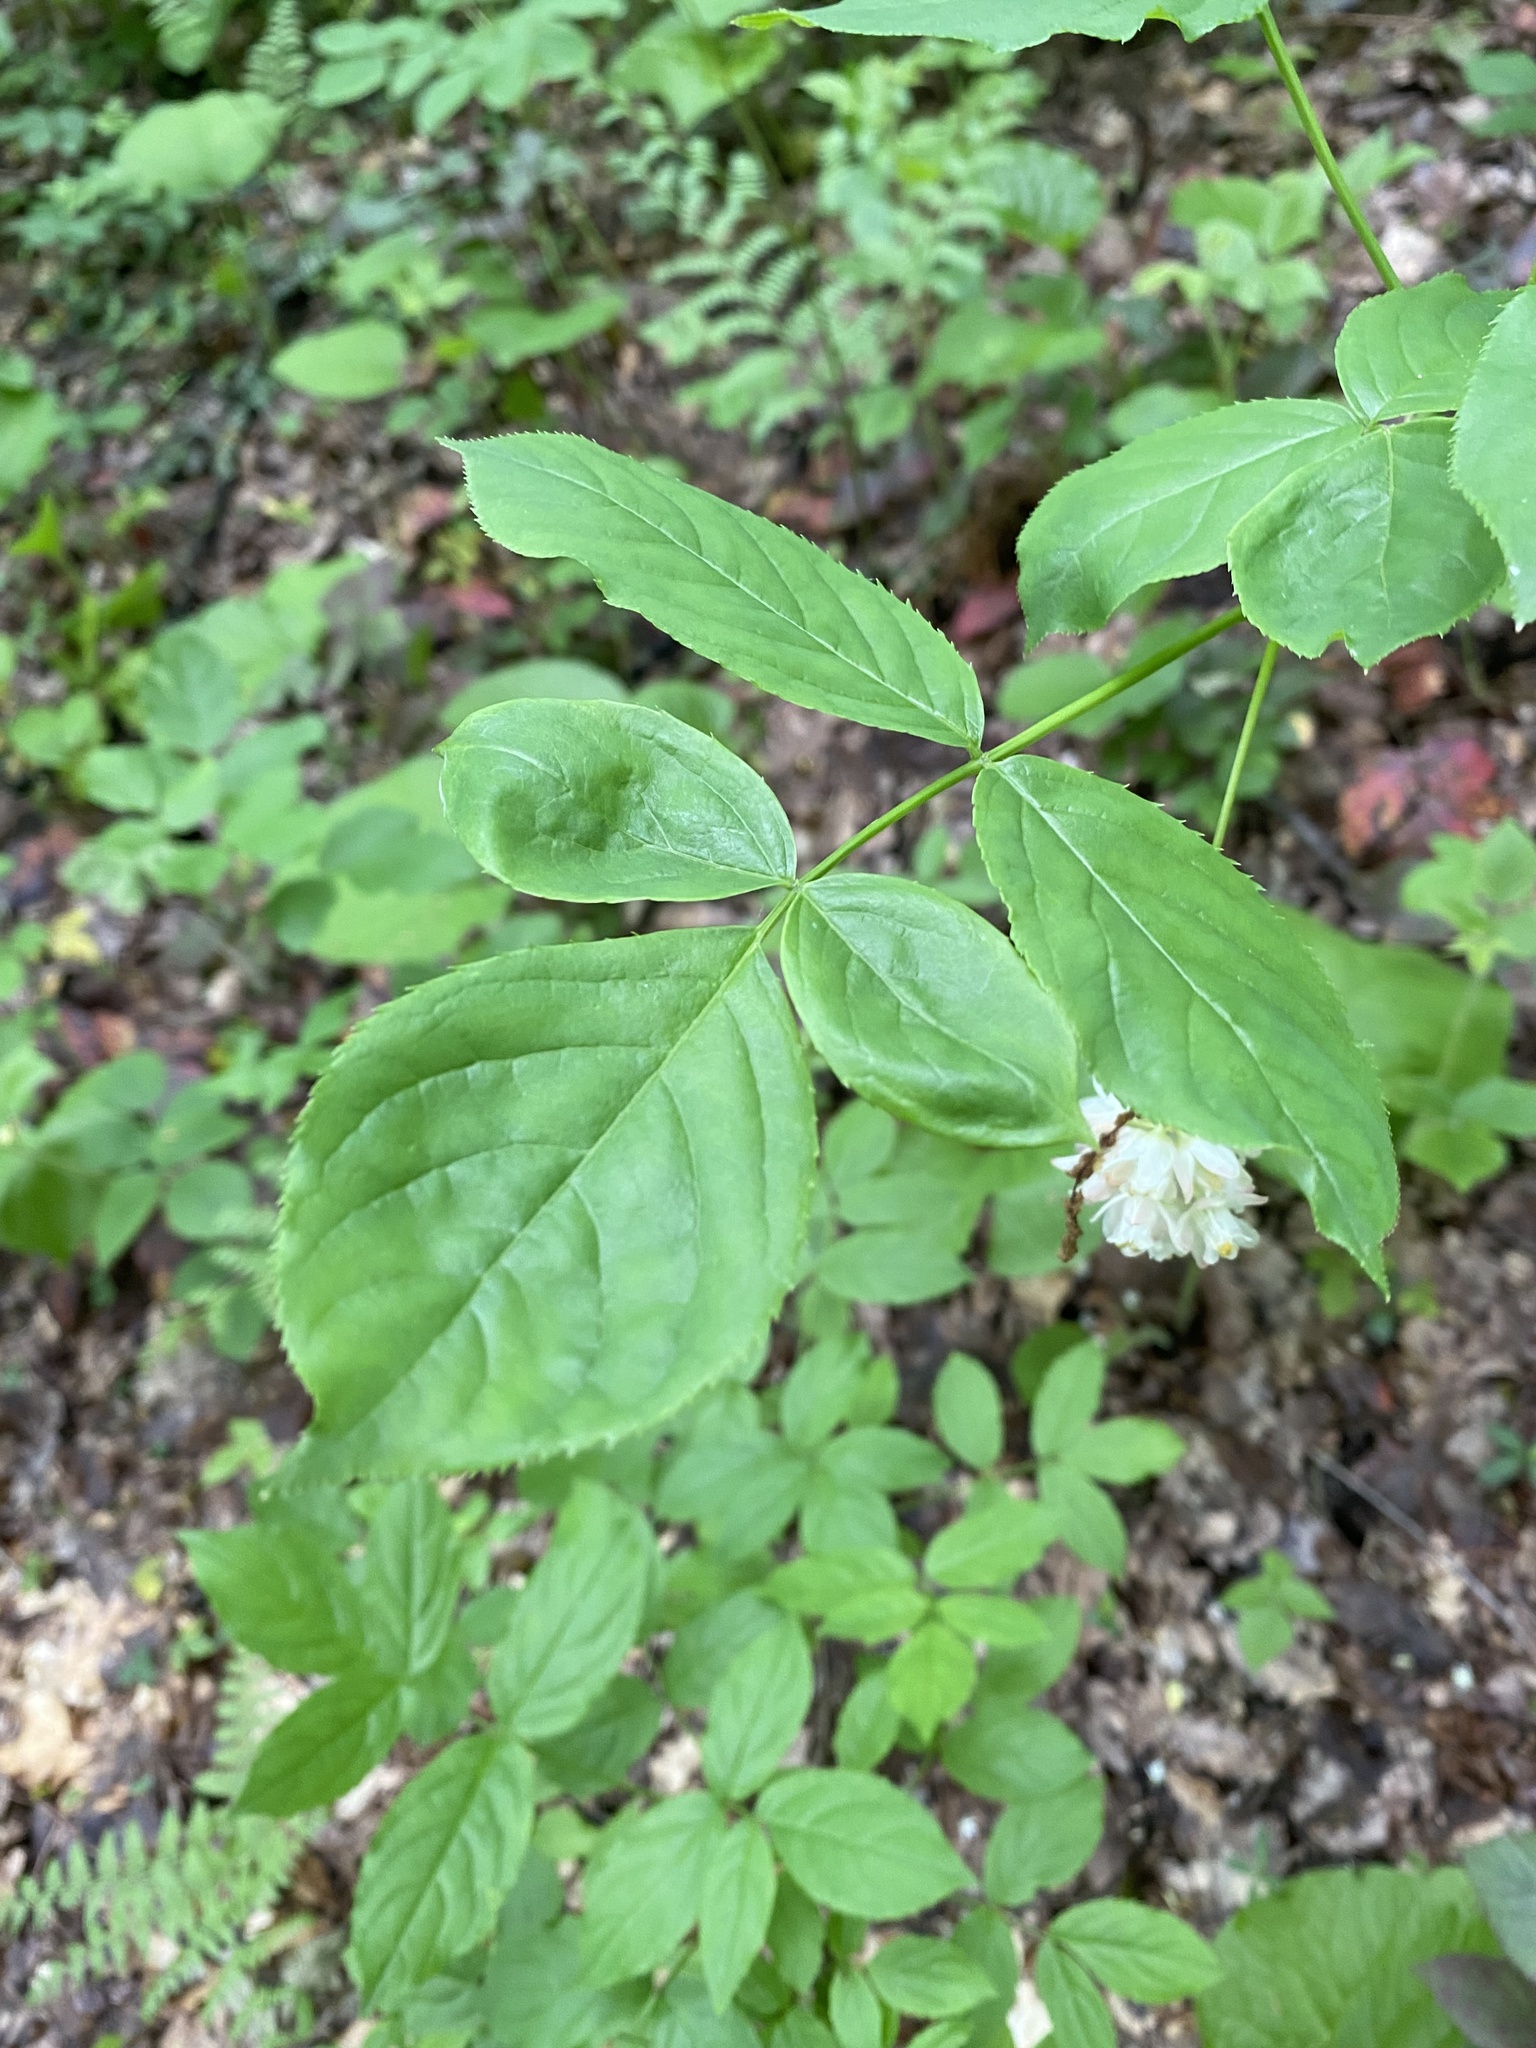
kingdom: Plantae
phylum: Tracheophyta
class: Magnoliopsida
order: Crossosomatales
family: Staphyleaceae
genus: Staphylea
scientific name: Staphylea pinnata
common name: Bladdernut
